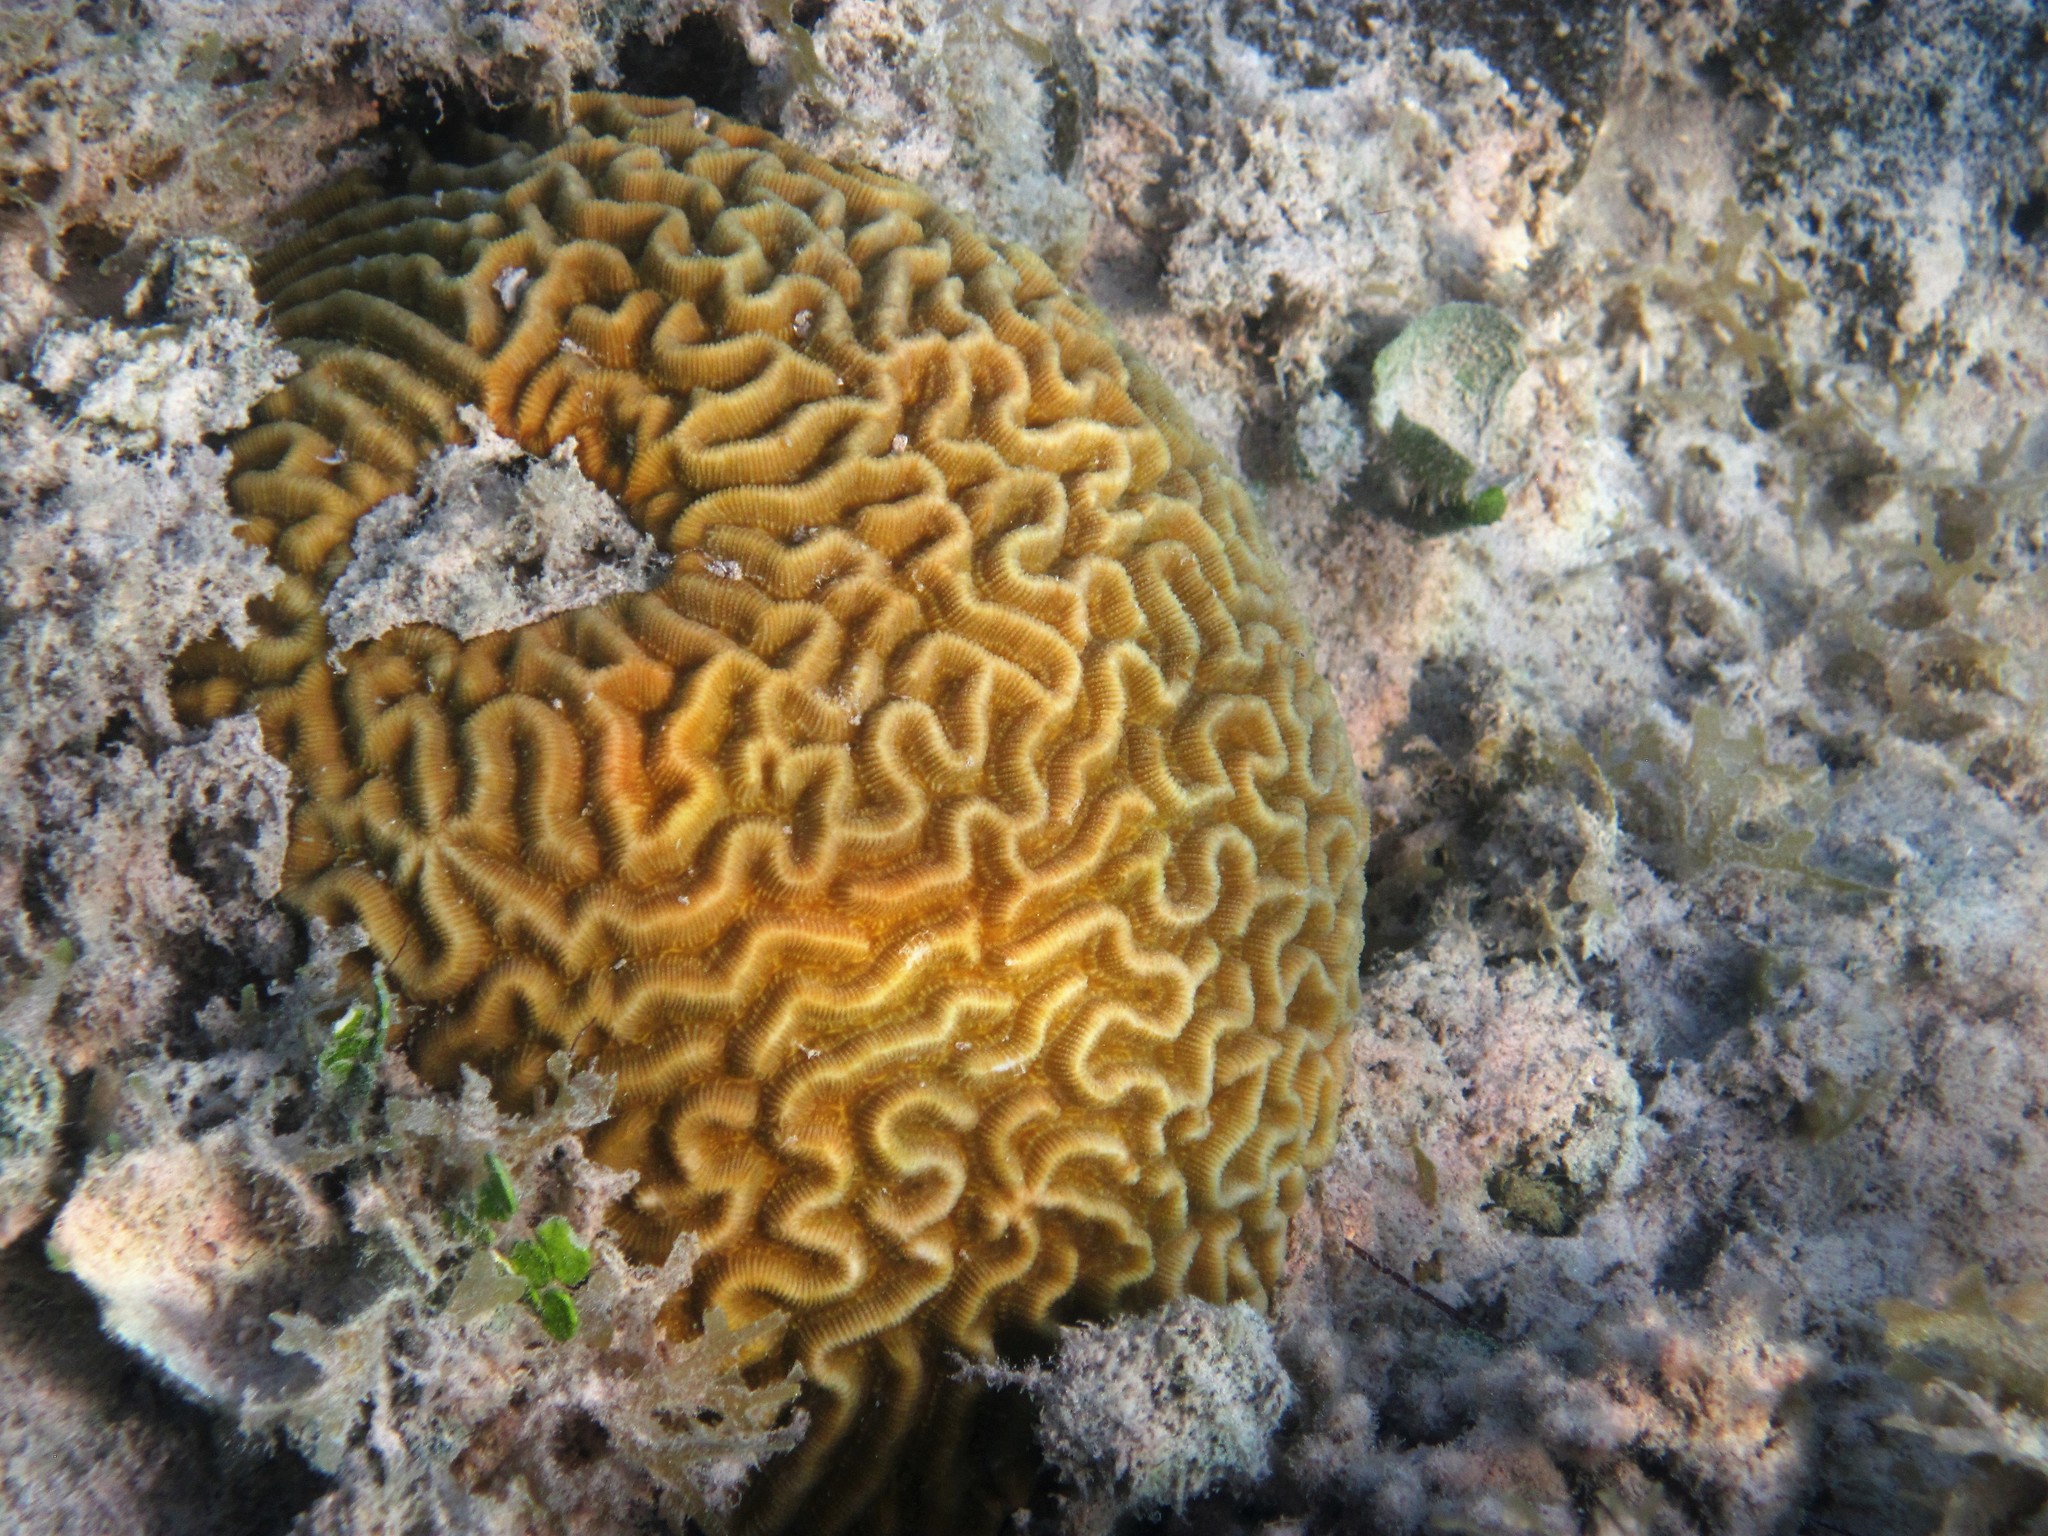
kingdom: Animalia
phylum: Cnidaria
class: Anthozoa
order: Scleractinia
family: Faviidae
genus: Pseudodiploria
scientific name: Pseudodiploria strigosa
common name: Symmetrical brain coral
